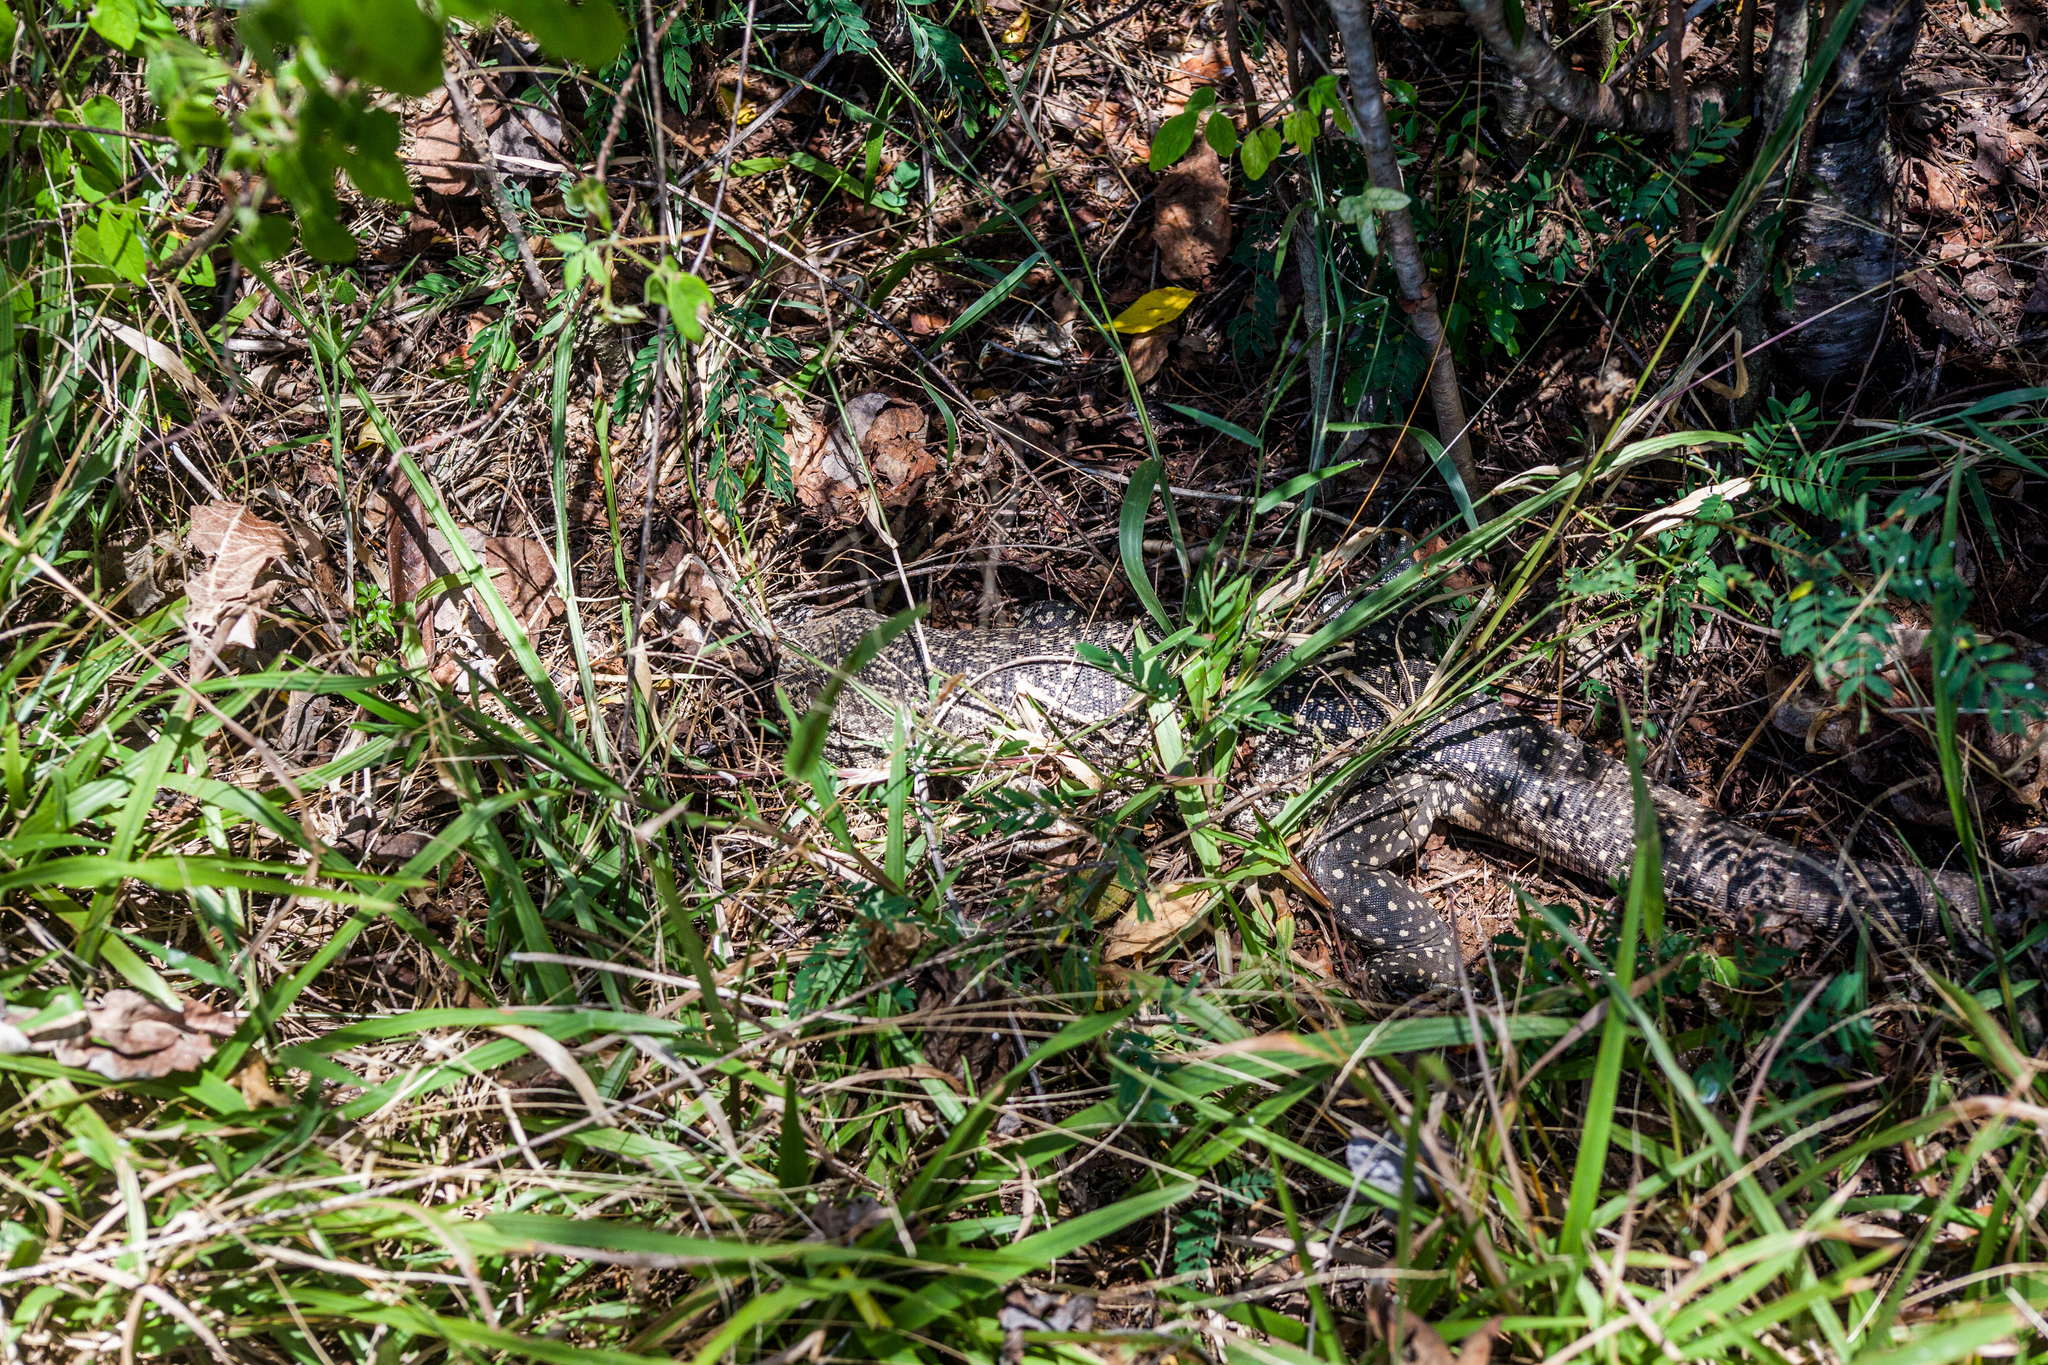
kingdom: Animalia
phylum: Chordata
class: Squamata
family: Teiidae
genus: Salvator
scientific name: Salvator merianae
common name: Argentine black and white tegu
